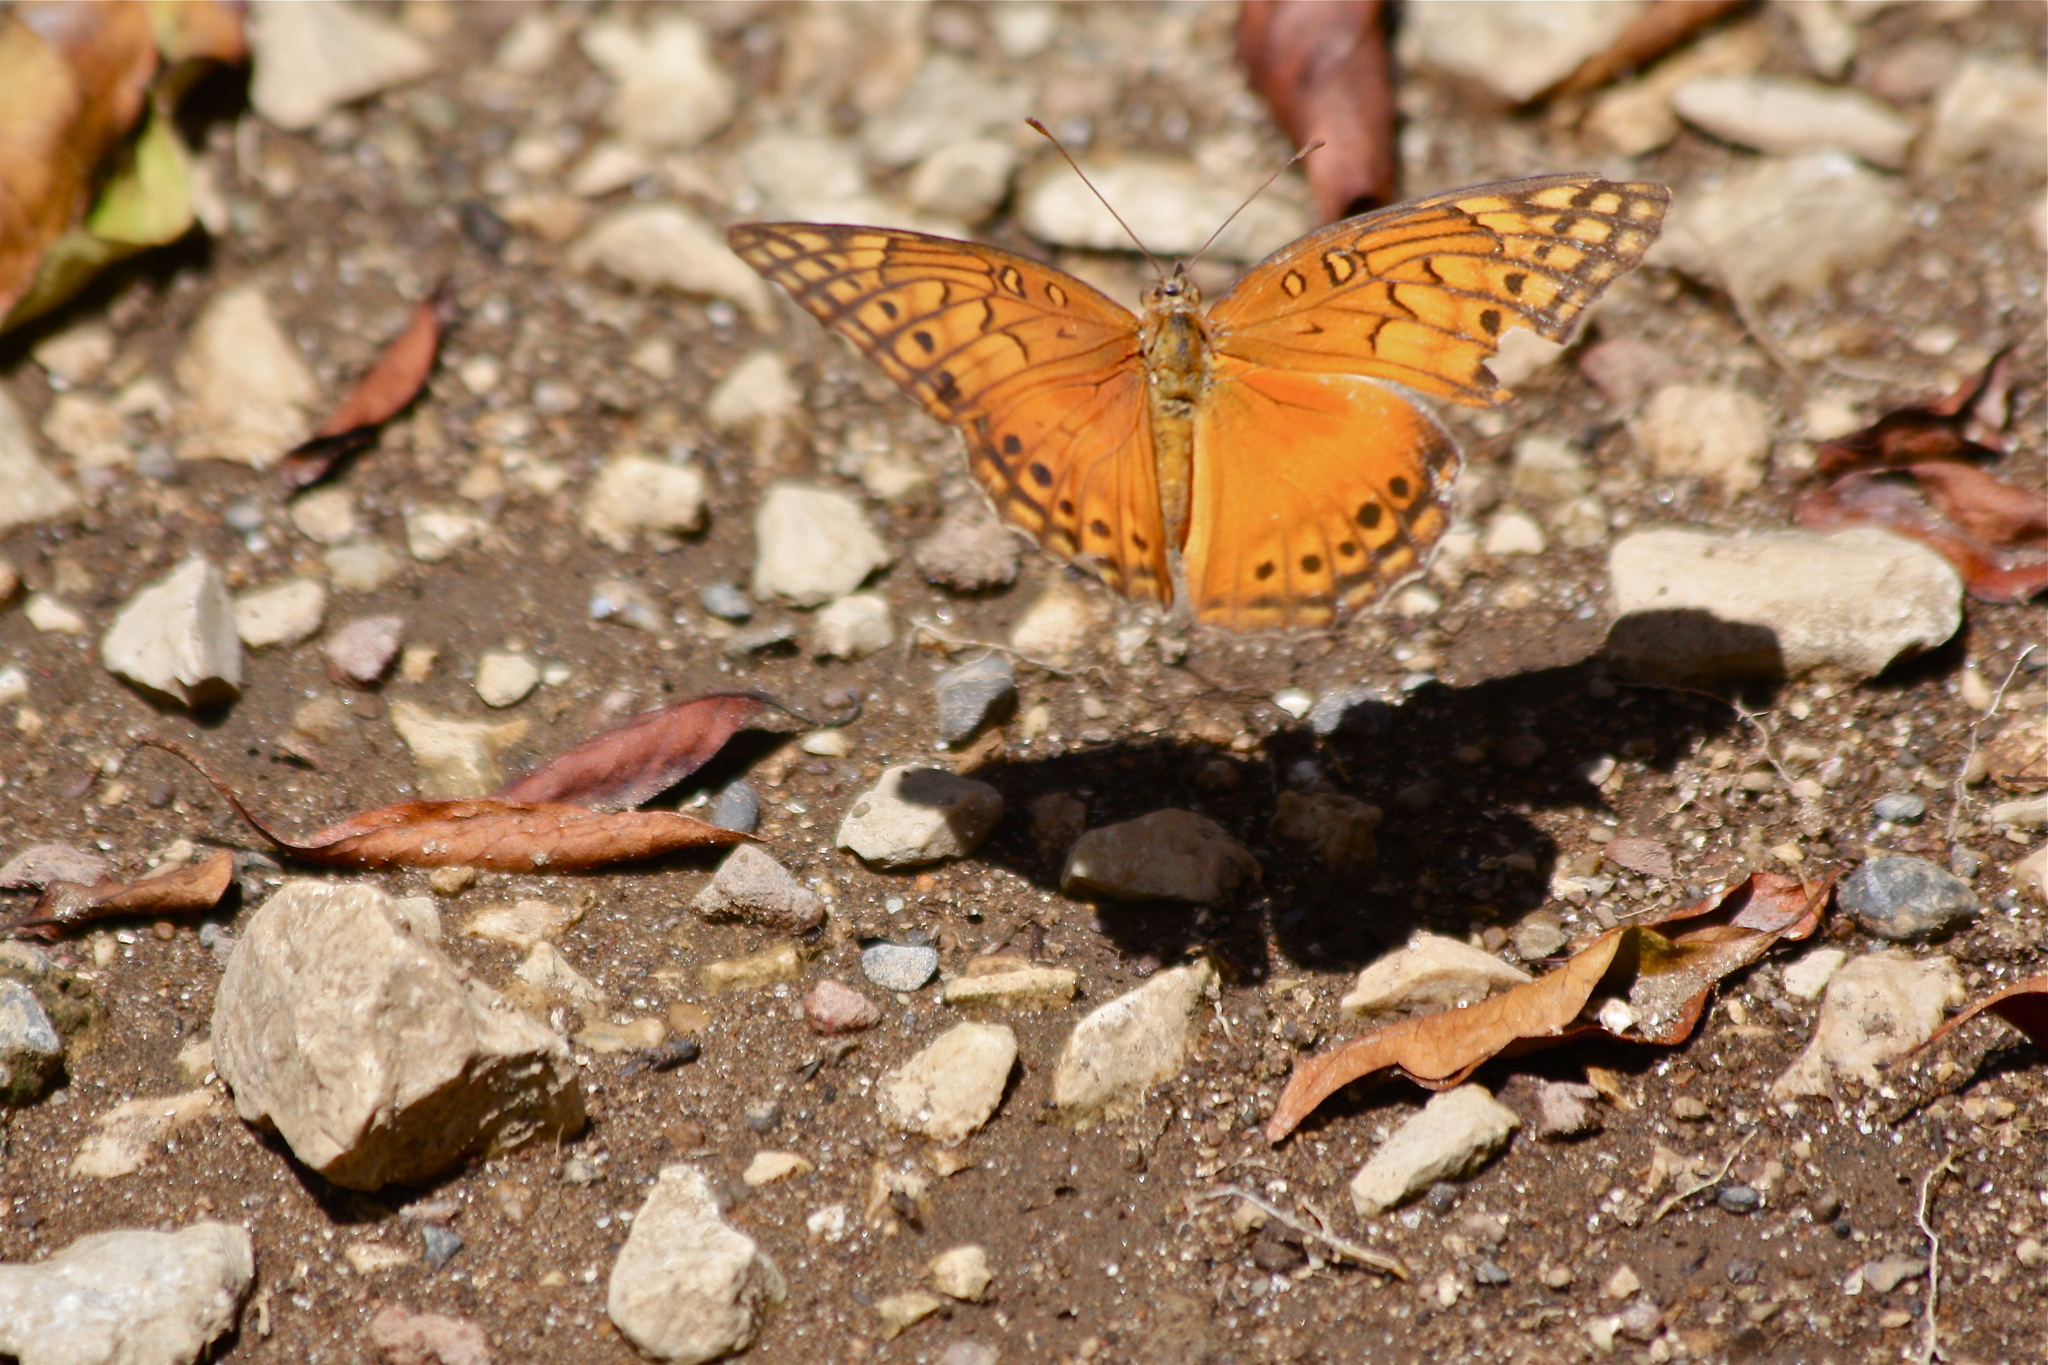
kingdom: Animalia
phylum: Arthropoda
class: Insecta
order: Lepidoptera
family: Nymphalidae
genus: Euptoieta
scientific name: Euptoieta hegesia
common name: Mexican fritillary
